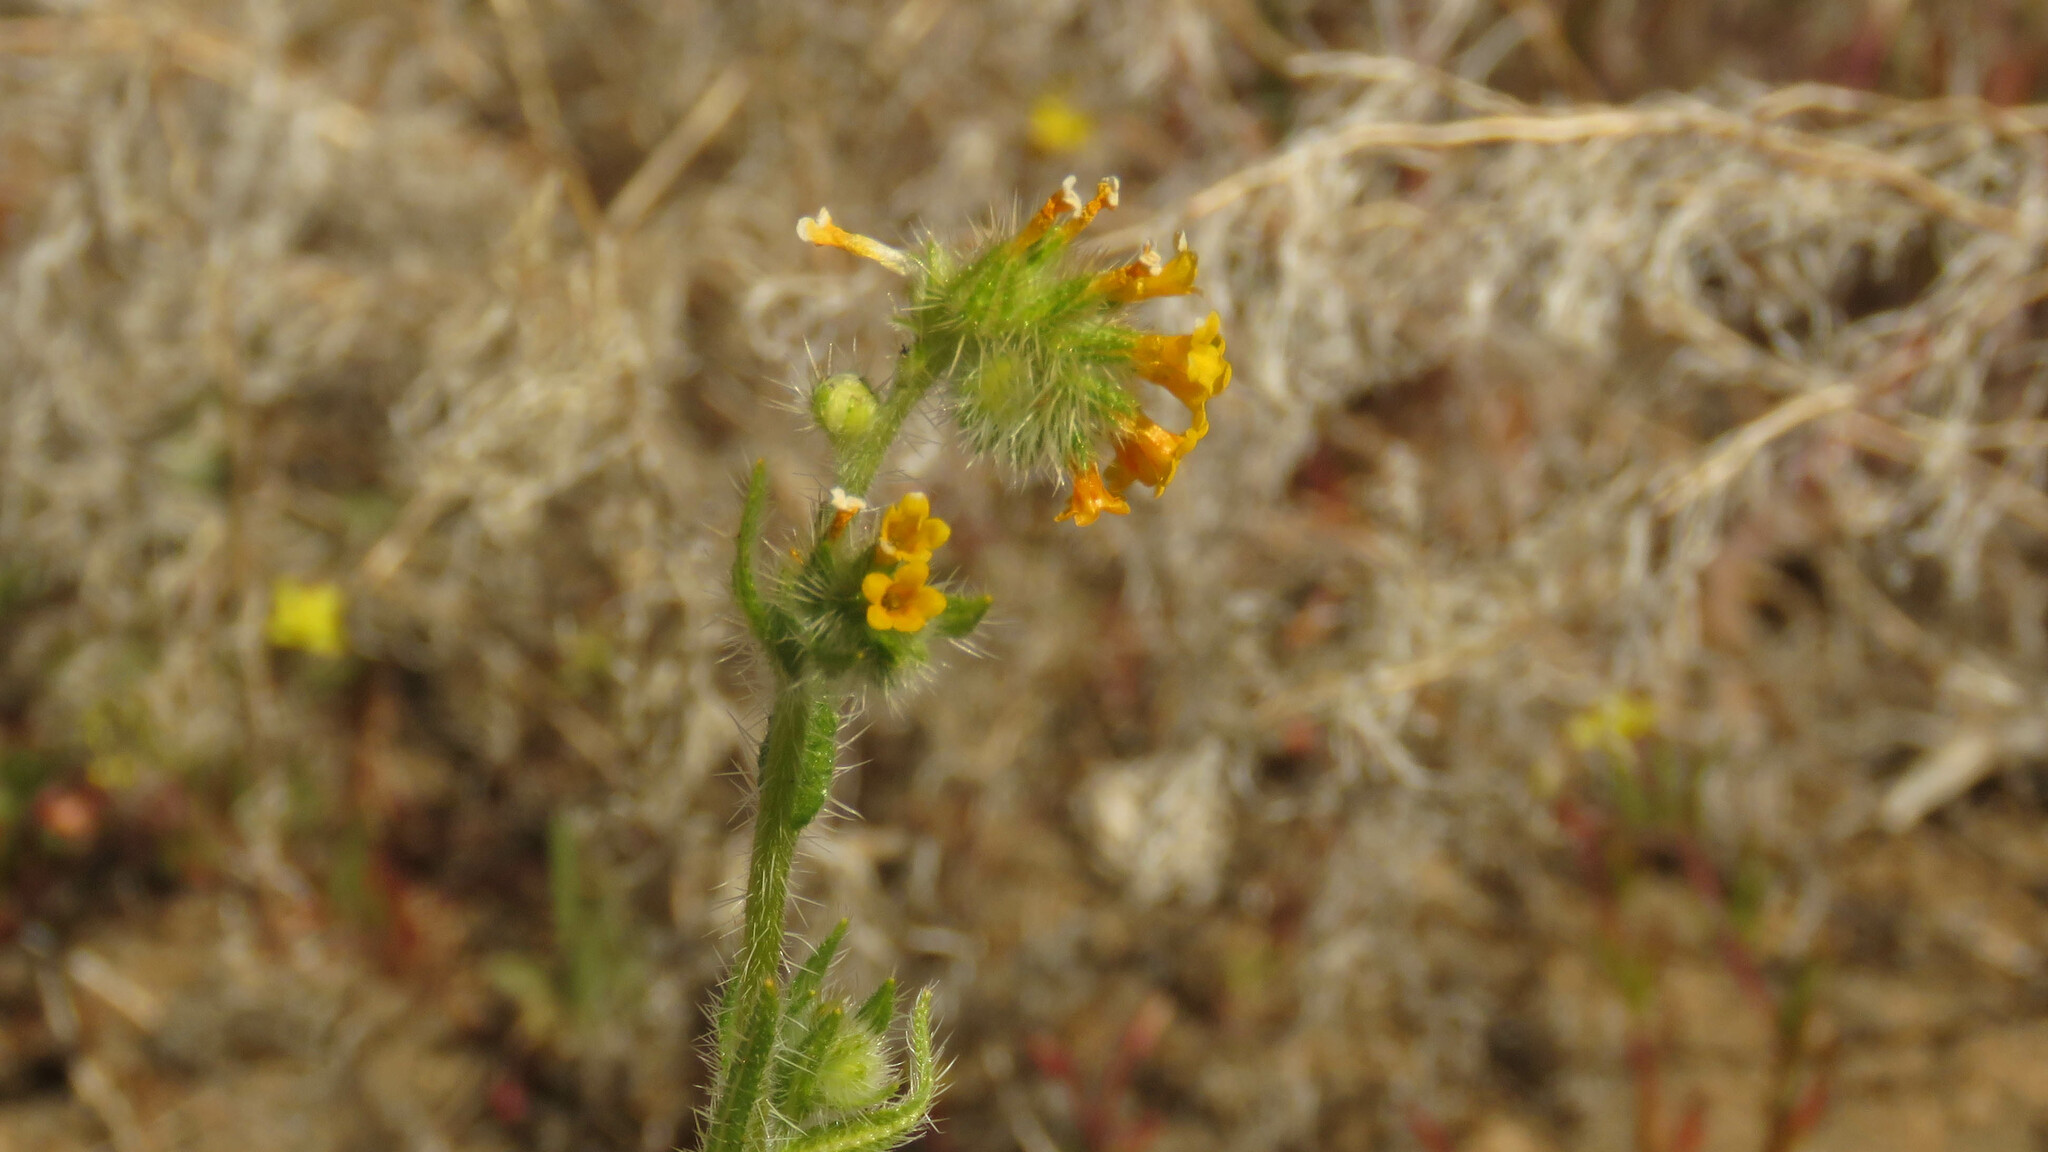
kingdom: Plantae
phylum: Tracheophyta
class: Magnoliopsida
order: Boraginales
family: Boraginaceae
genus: Amsinckia
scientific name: Amsinckia calycina
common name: Hairy fiddleneck
